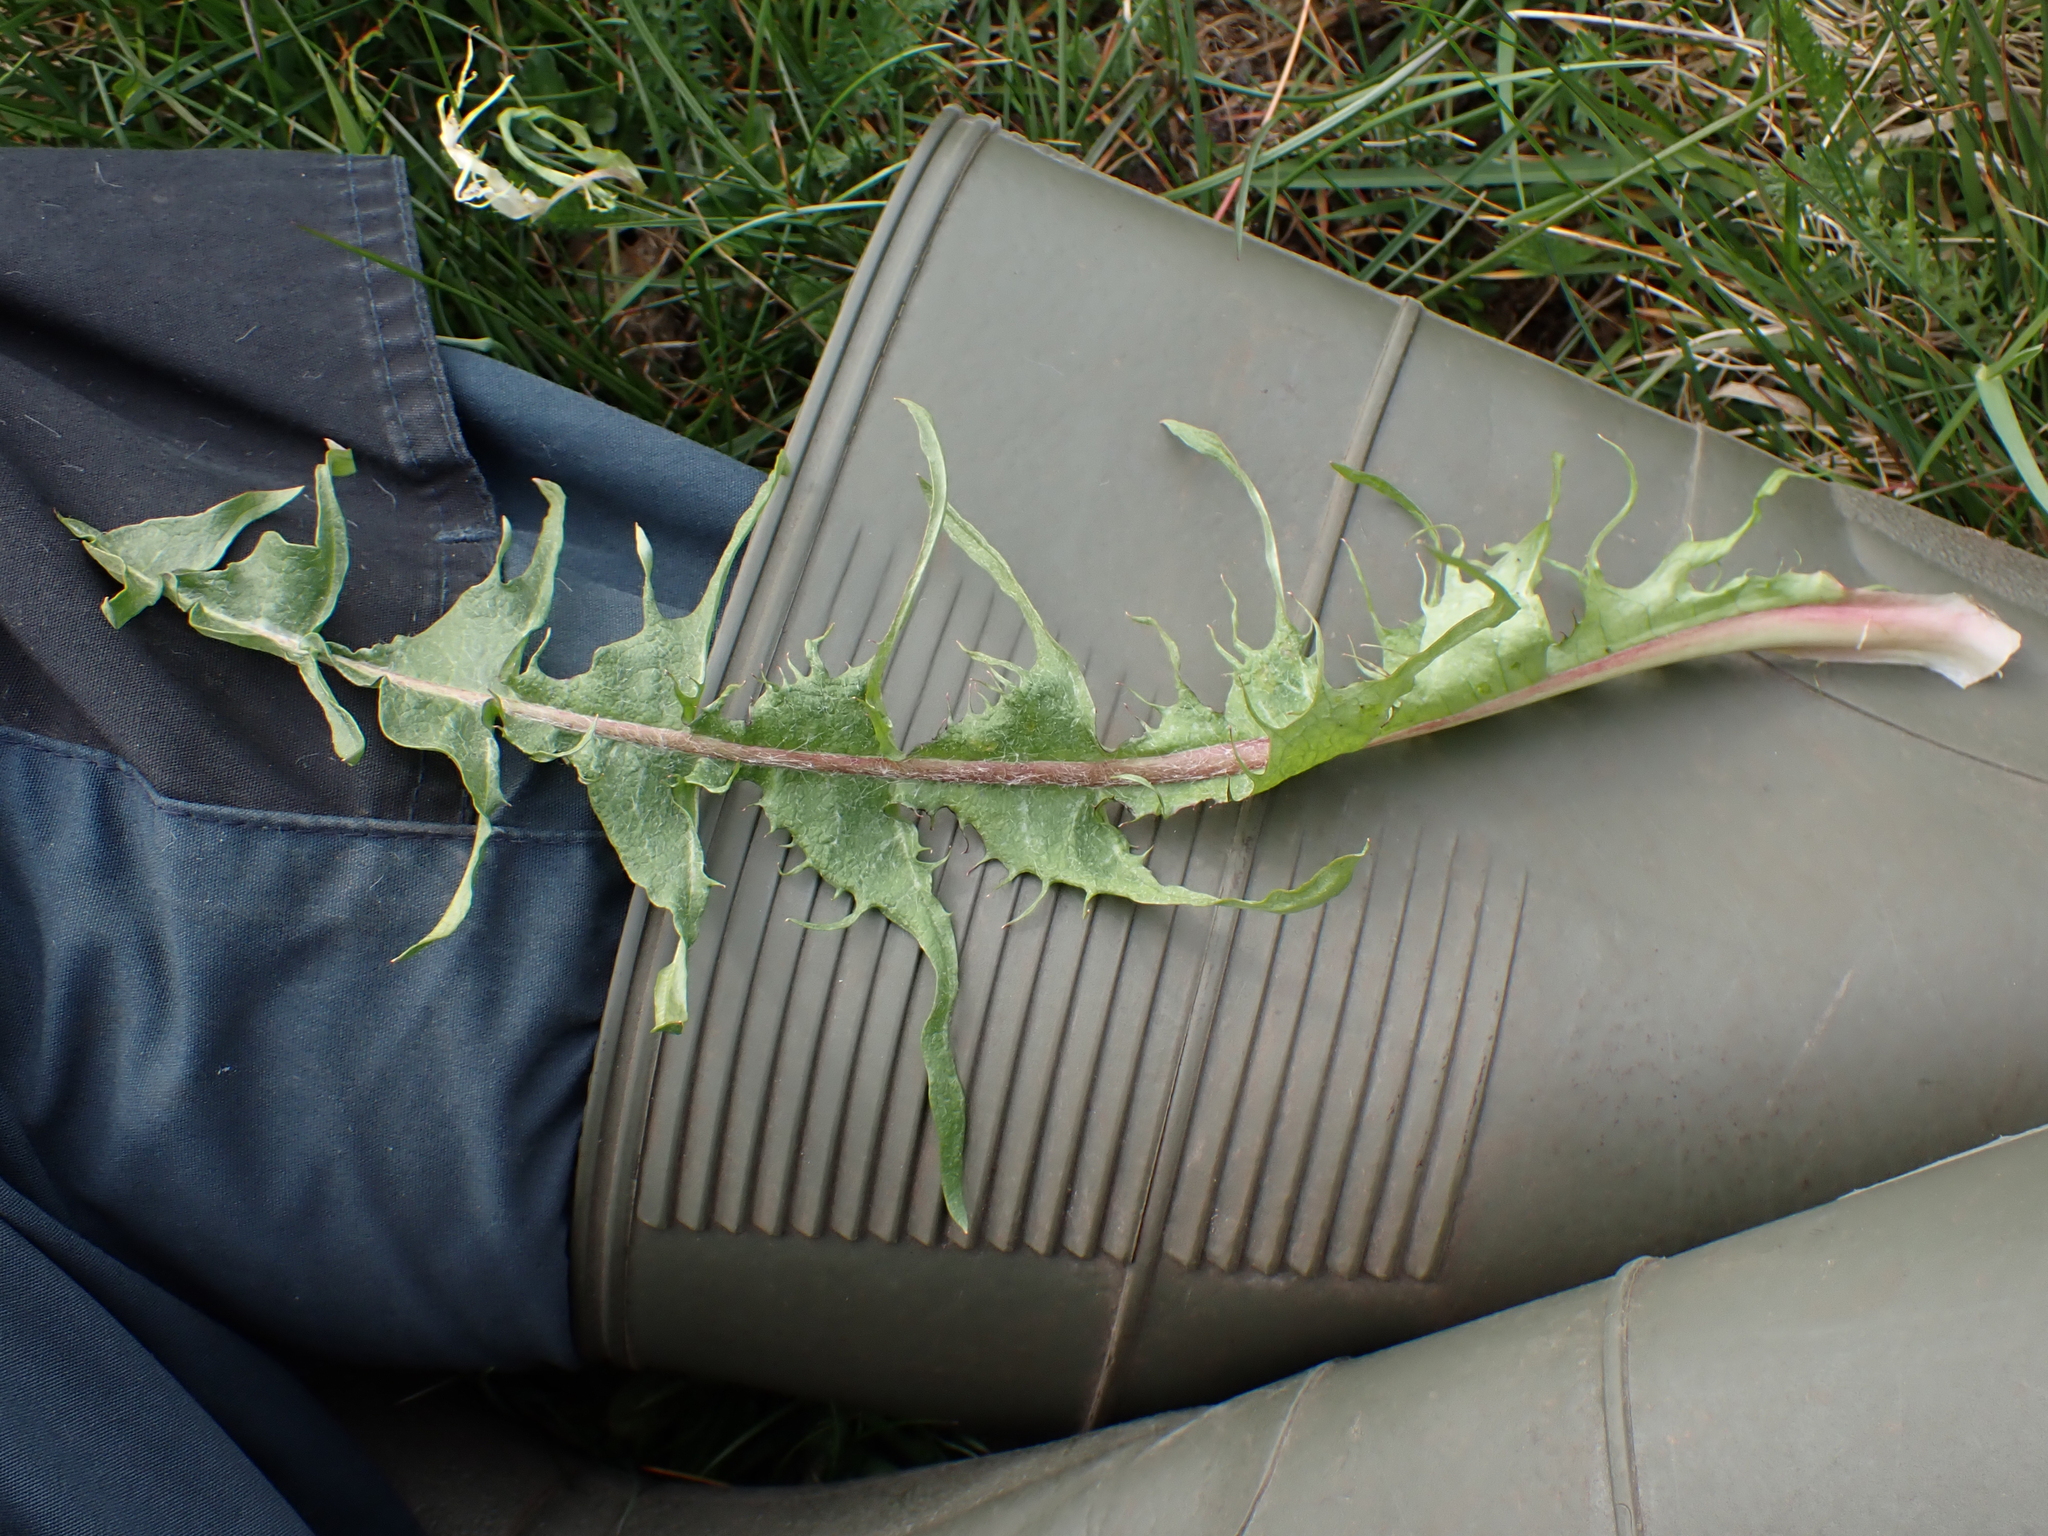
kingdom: Plantae
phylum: Tracheophyta
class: Magnoliopsida
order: Asterales
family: Asteraceae
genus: Taraxacum
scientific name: Taraxacum pectinatiforme
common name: Pectinate-leaved dandelion
